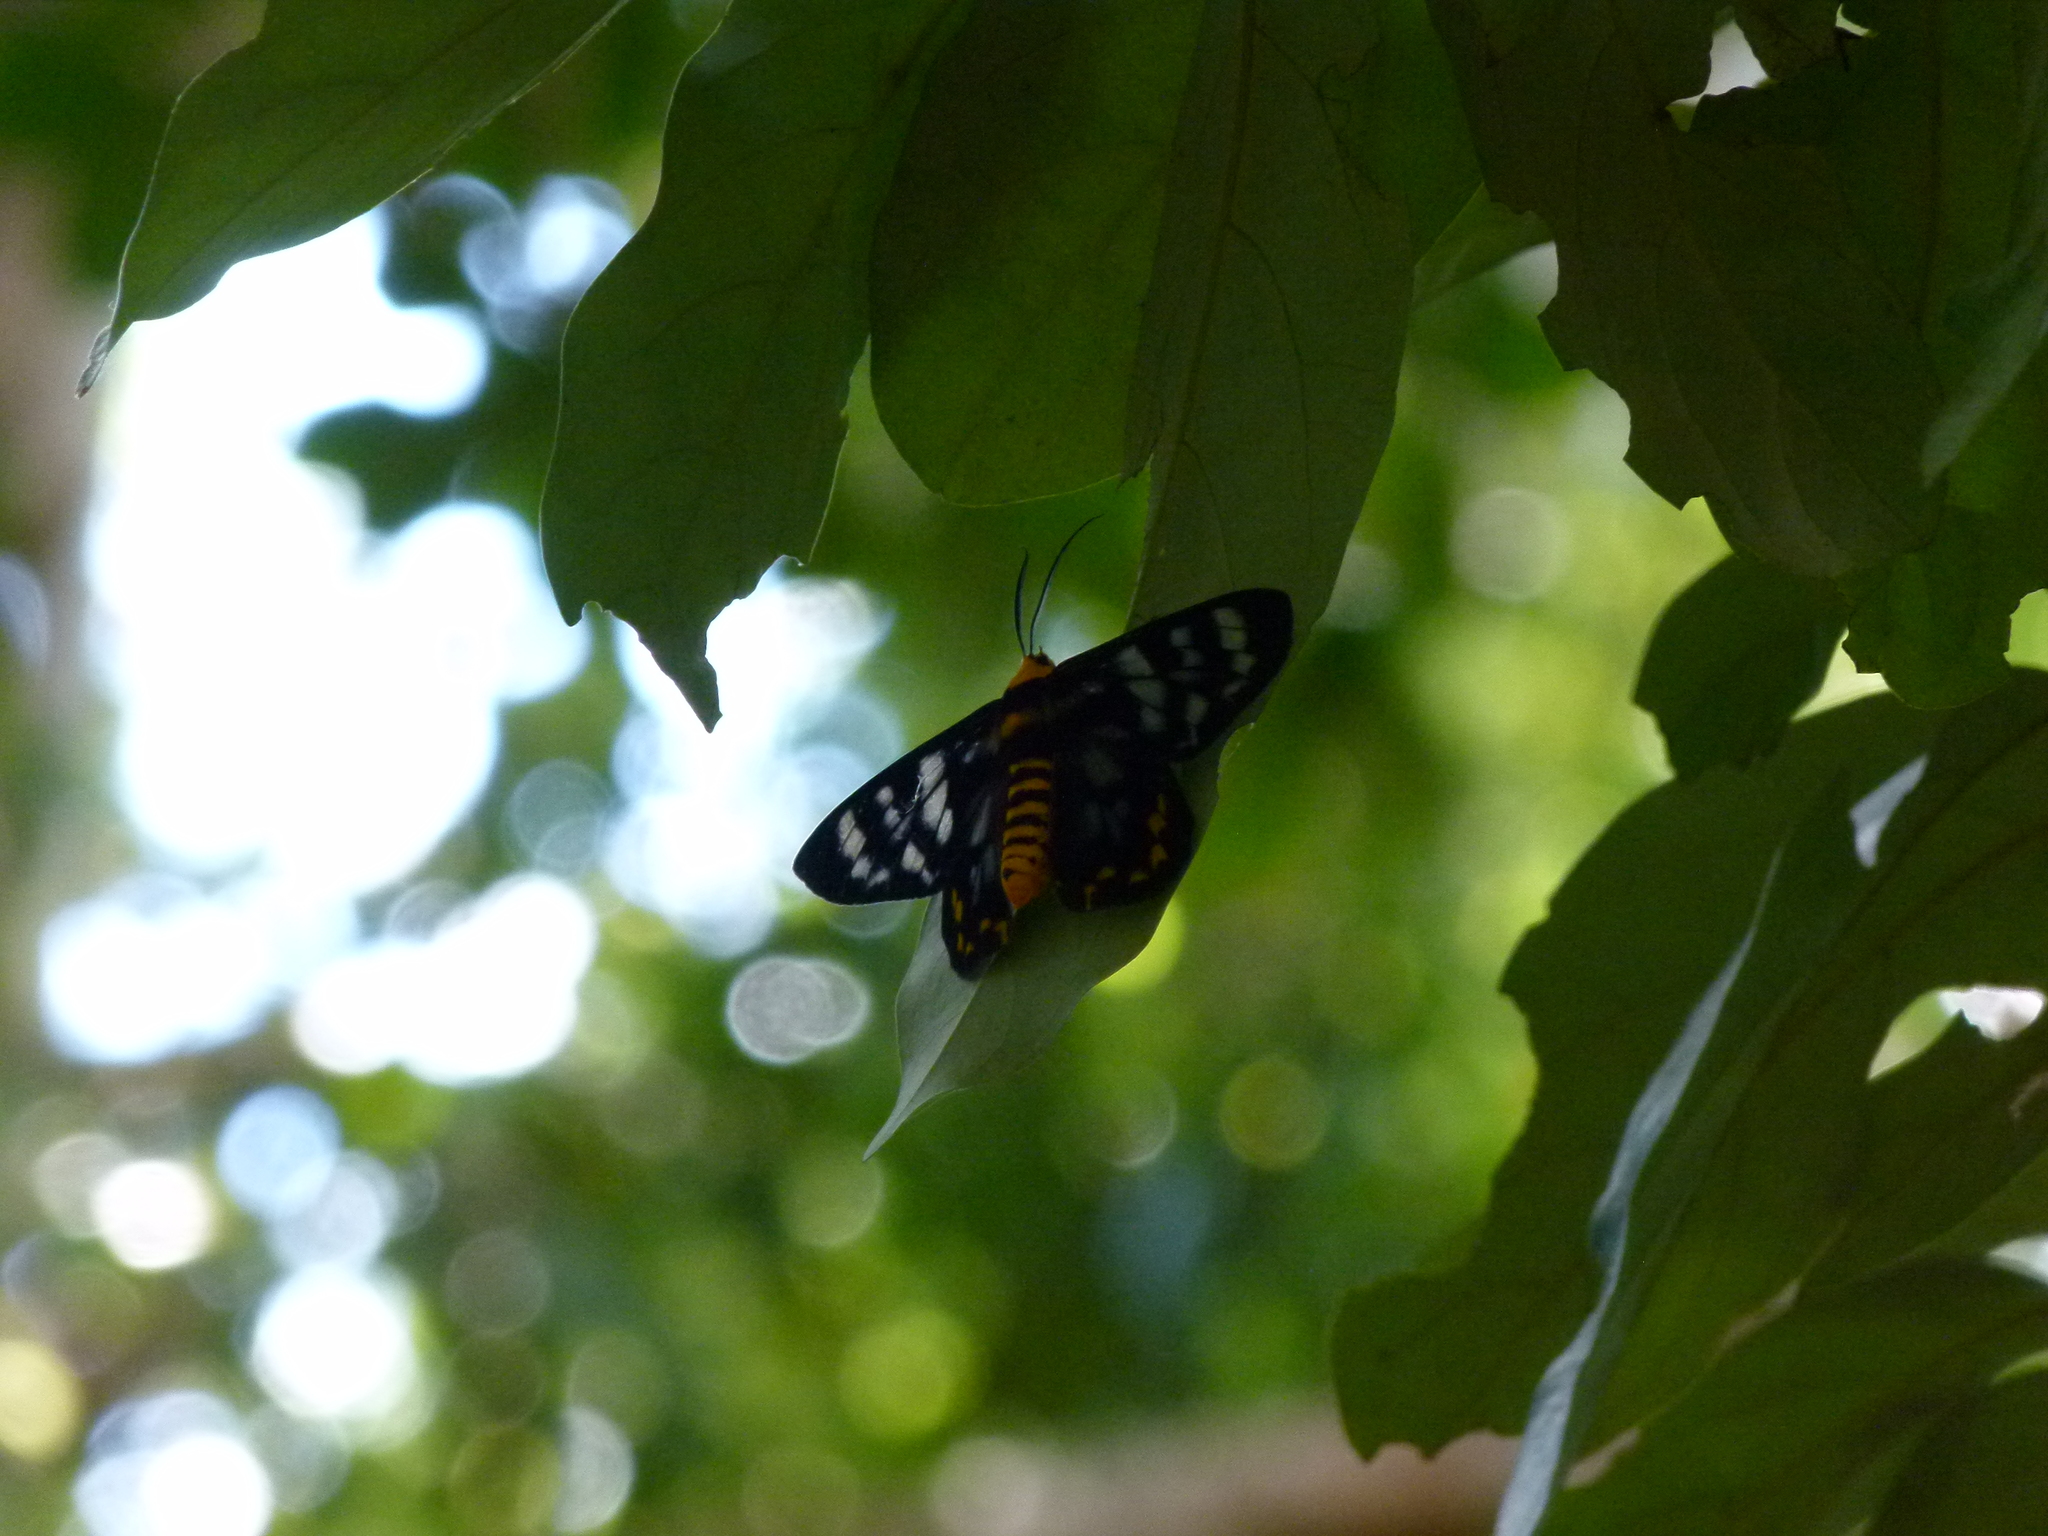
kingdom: Animalia
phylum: Arthropoda
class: Insecta
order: Lepidoptera
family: Geometridae
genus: Dysphania
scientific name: Dysphania numana
